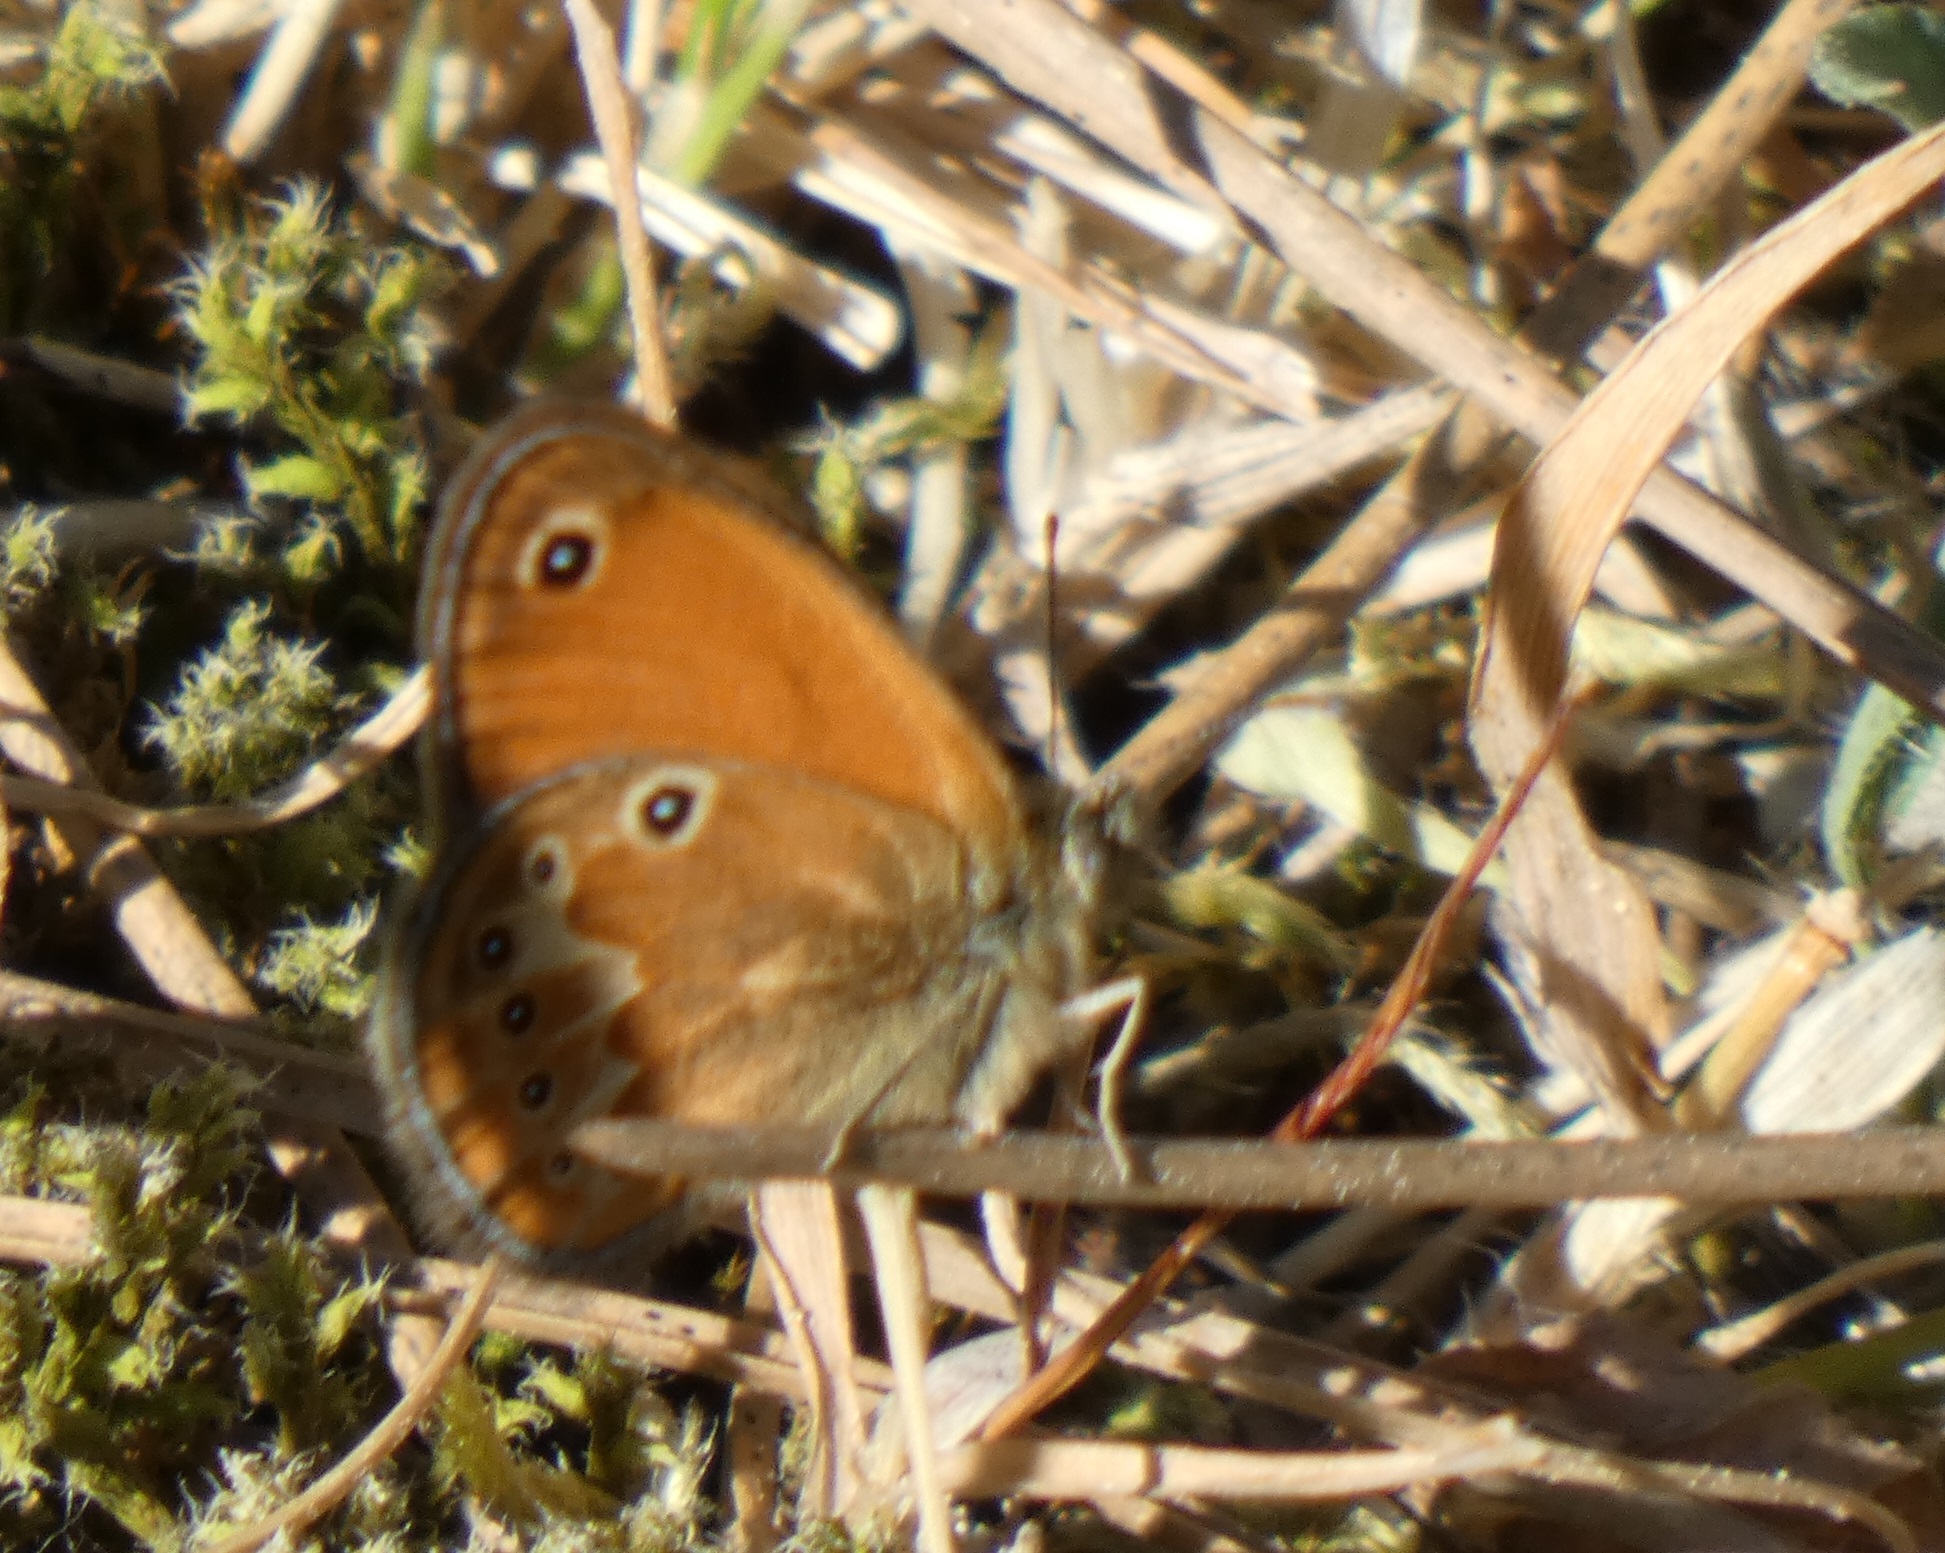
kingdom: Animalia
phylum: Arthropoda
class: Insecta
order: Lepidoptera
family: Nymphalidae
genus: Coenonympha
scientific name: Coenonympha corinna
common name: Corsican heath
